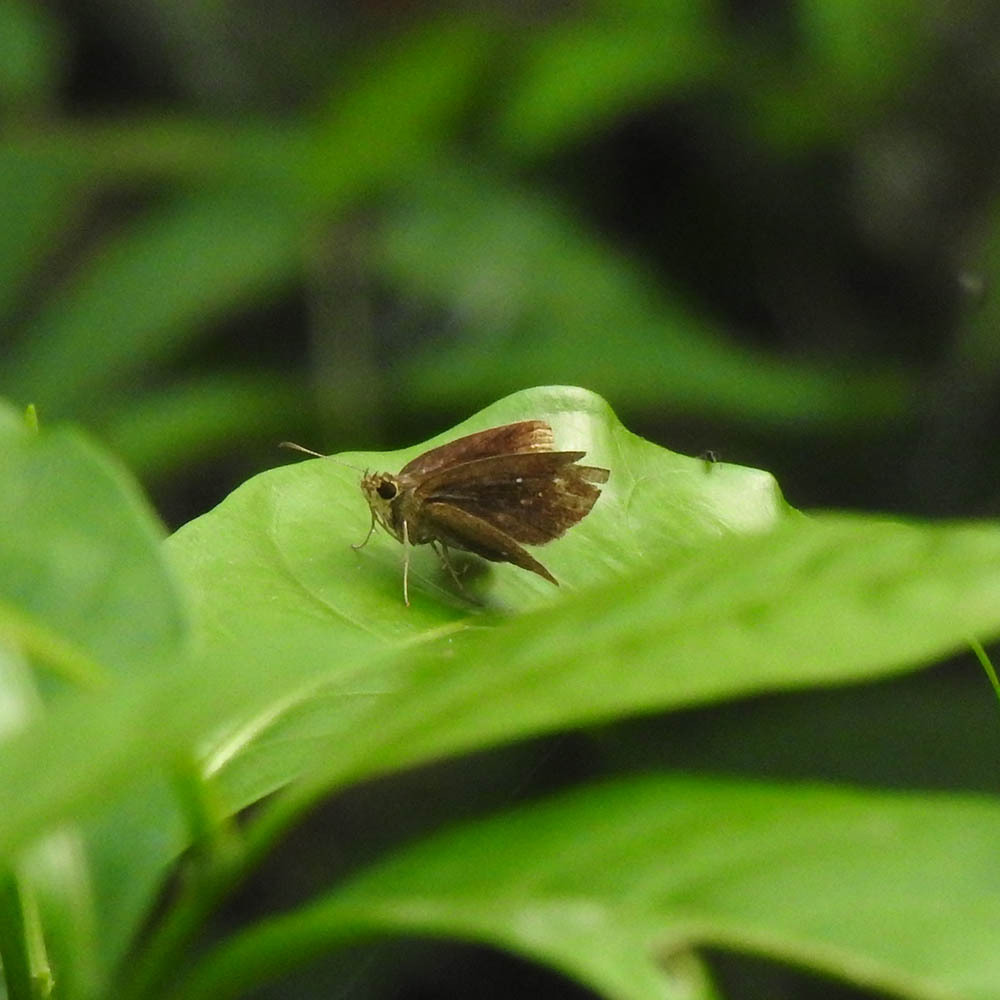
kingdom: Animalia
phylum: Arthropoda
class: Insecta
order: Lepidoptera
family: Hesperiidae
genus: Iambrix
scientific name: Iambrix salsala
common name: Chestnut bob
